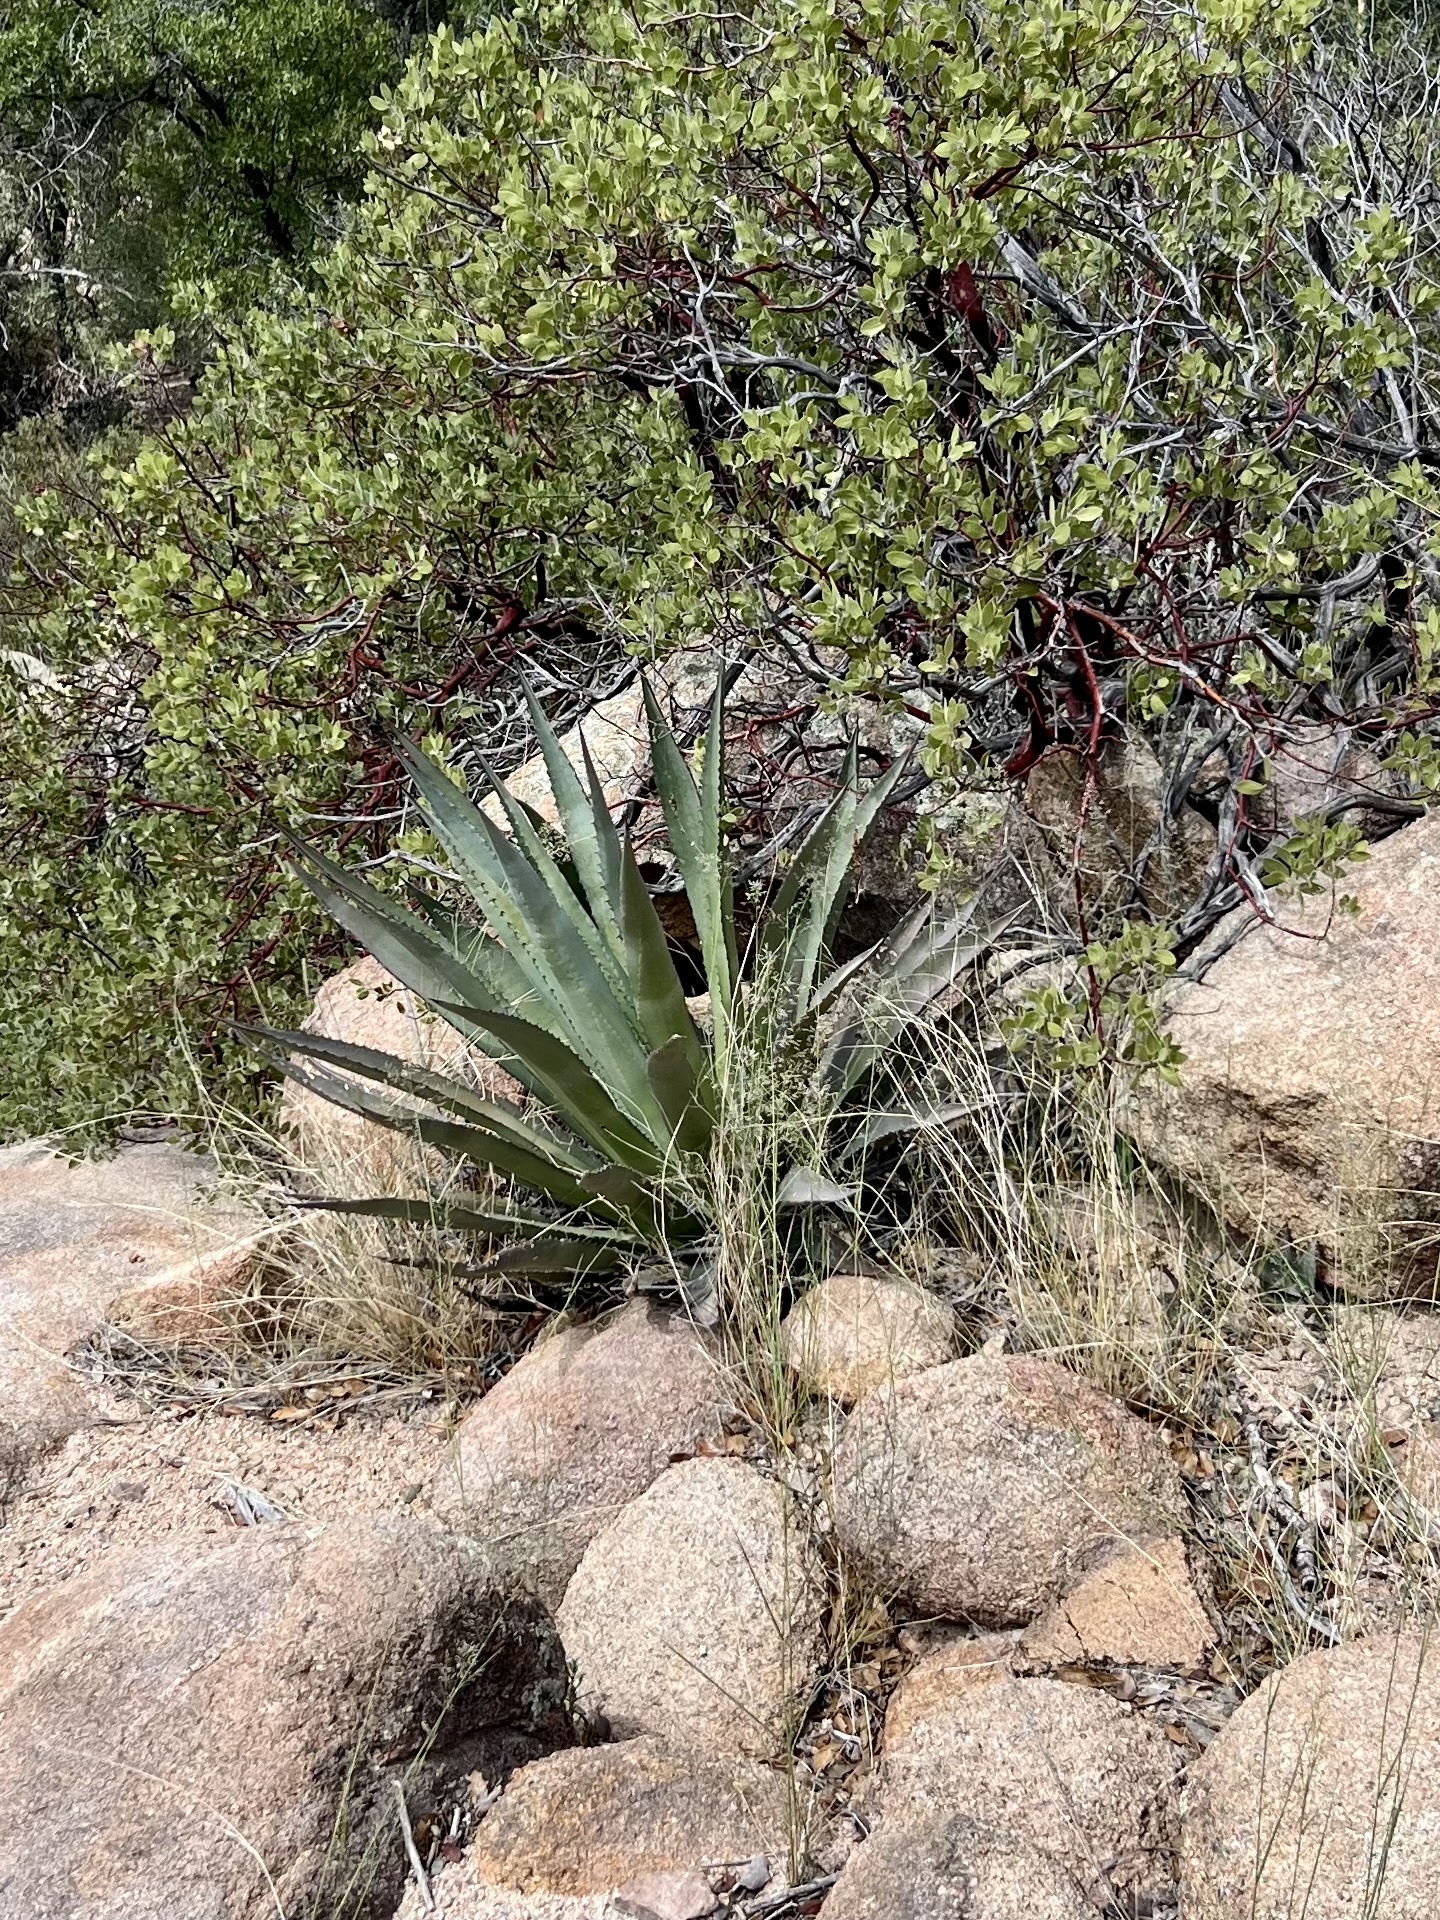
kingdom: Plantae
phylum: Tracheophyta
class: Liliopsida
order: Asparagales
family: Asparagaceae
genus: Agave
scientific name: Agave palmeri
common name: Palmer agave
